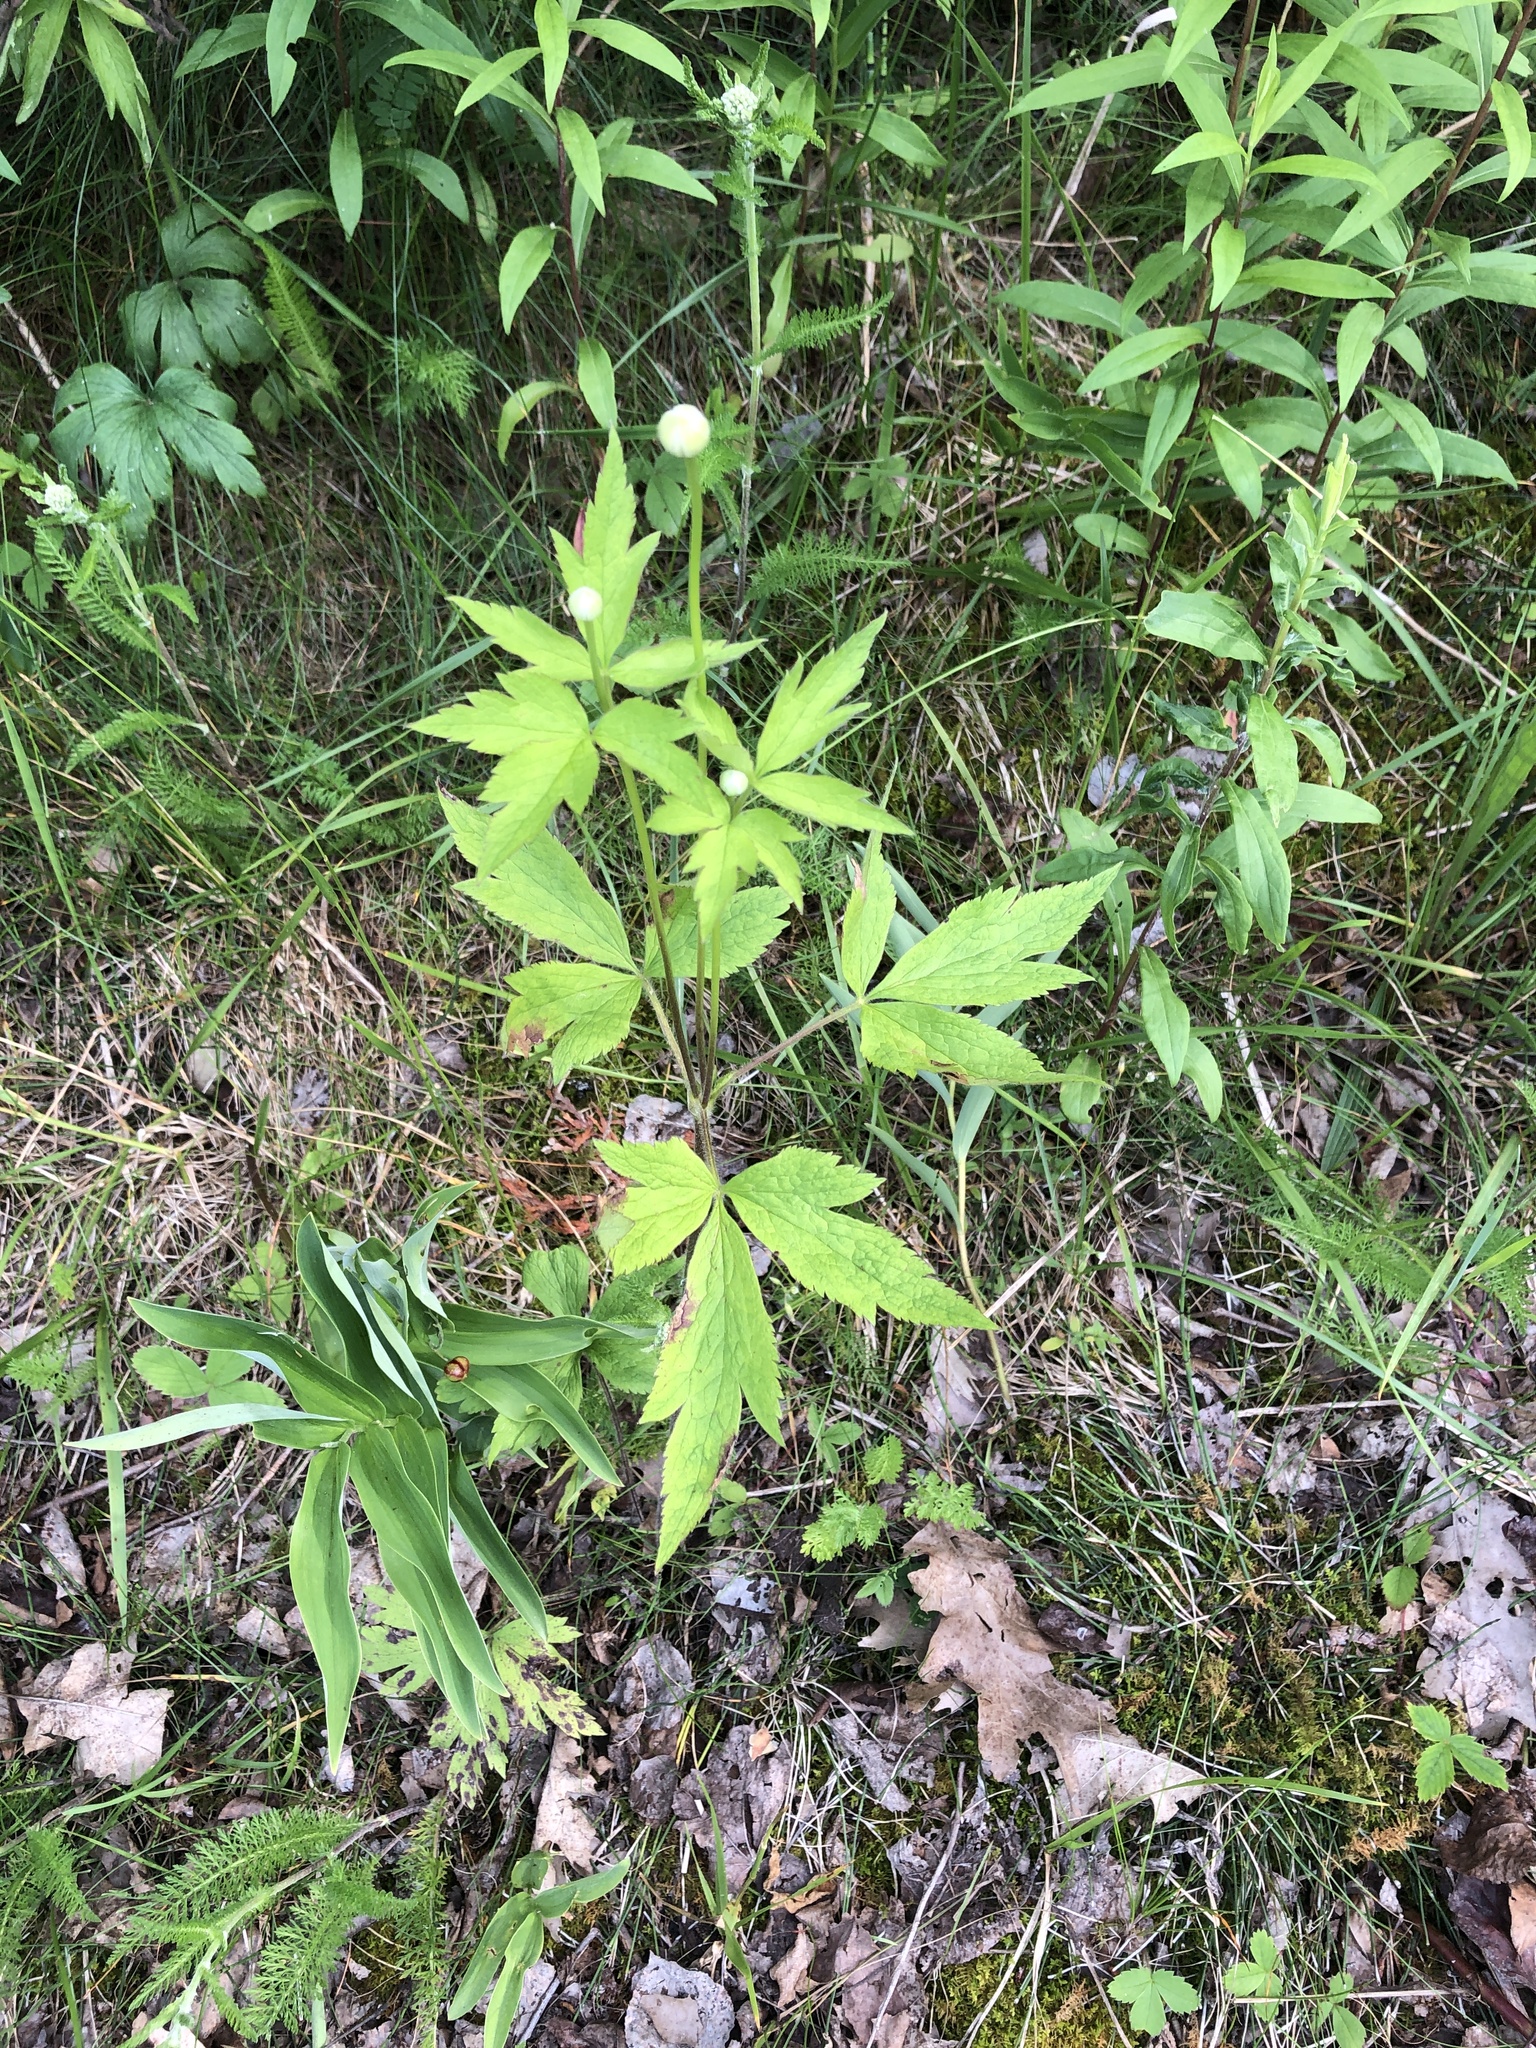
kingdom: Plantae
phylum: Tracheophyta
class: Magnoliopsida
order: Ranunculales
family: Ranunculaceae
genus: Anemone
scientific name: Anemone virginiana
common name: Tall anemone
